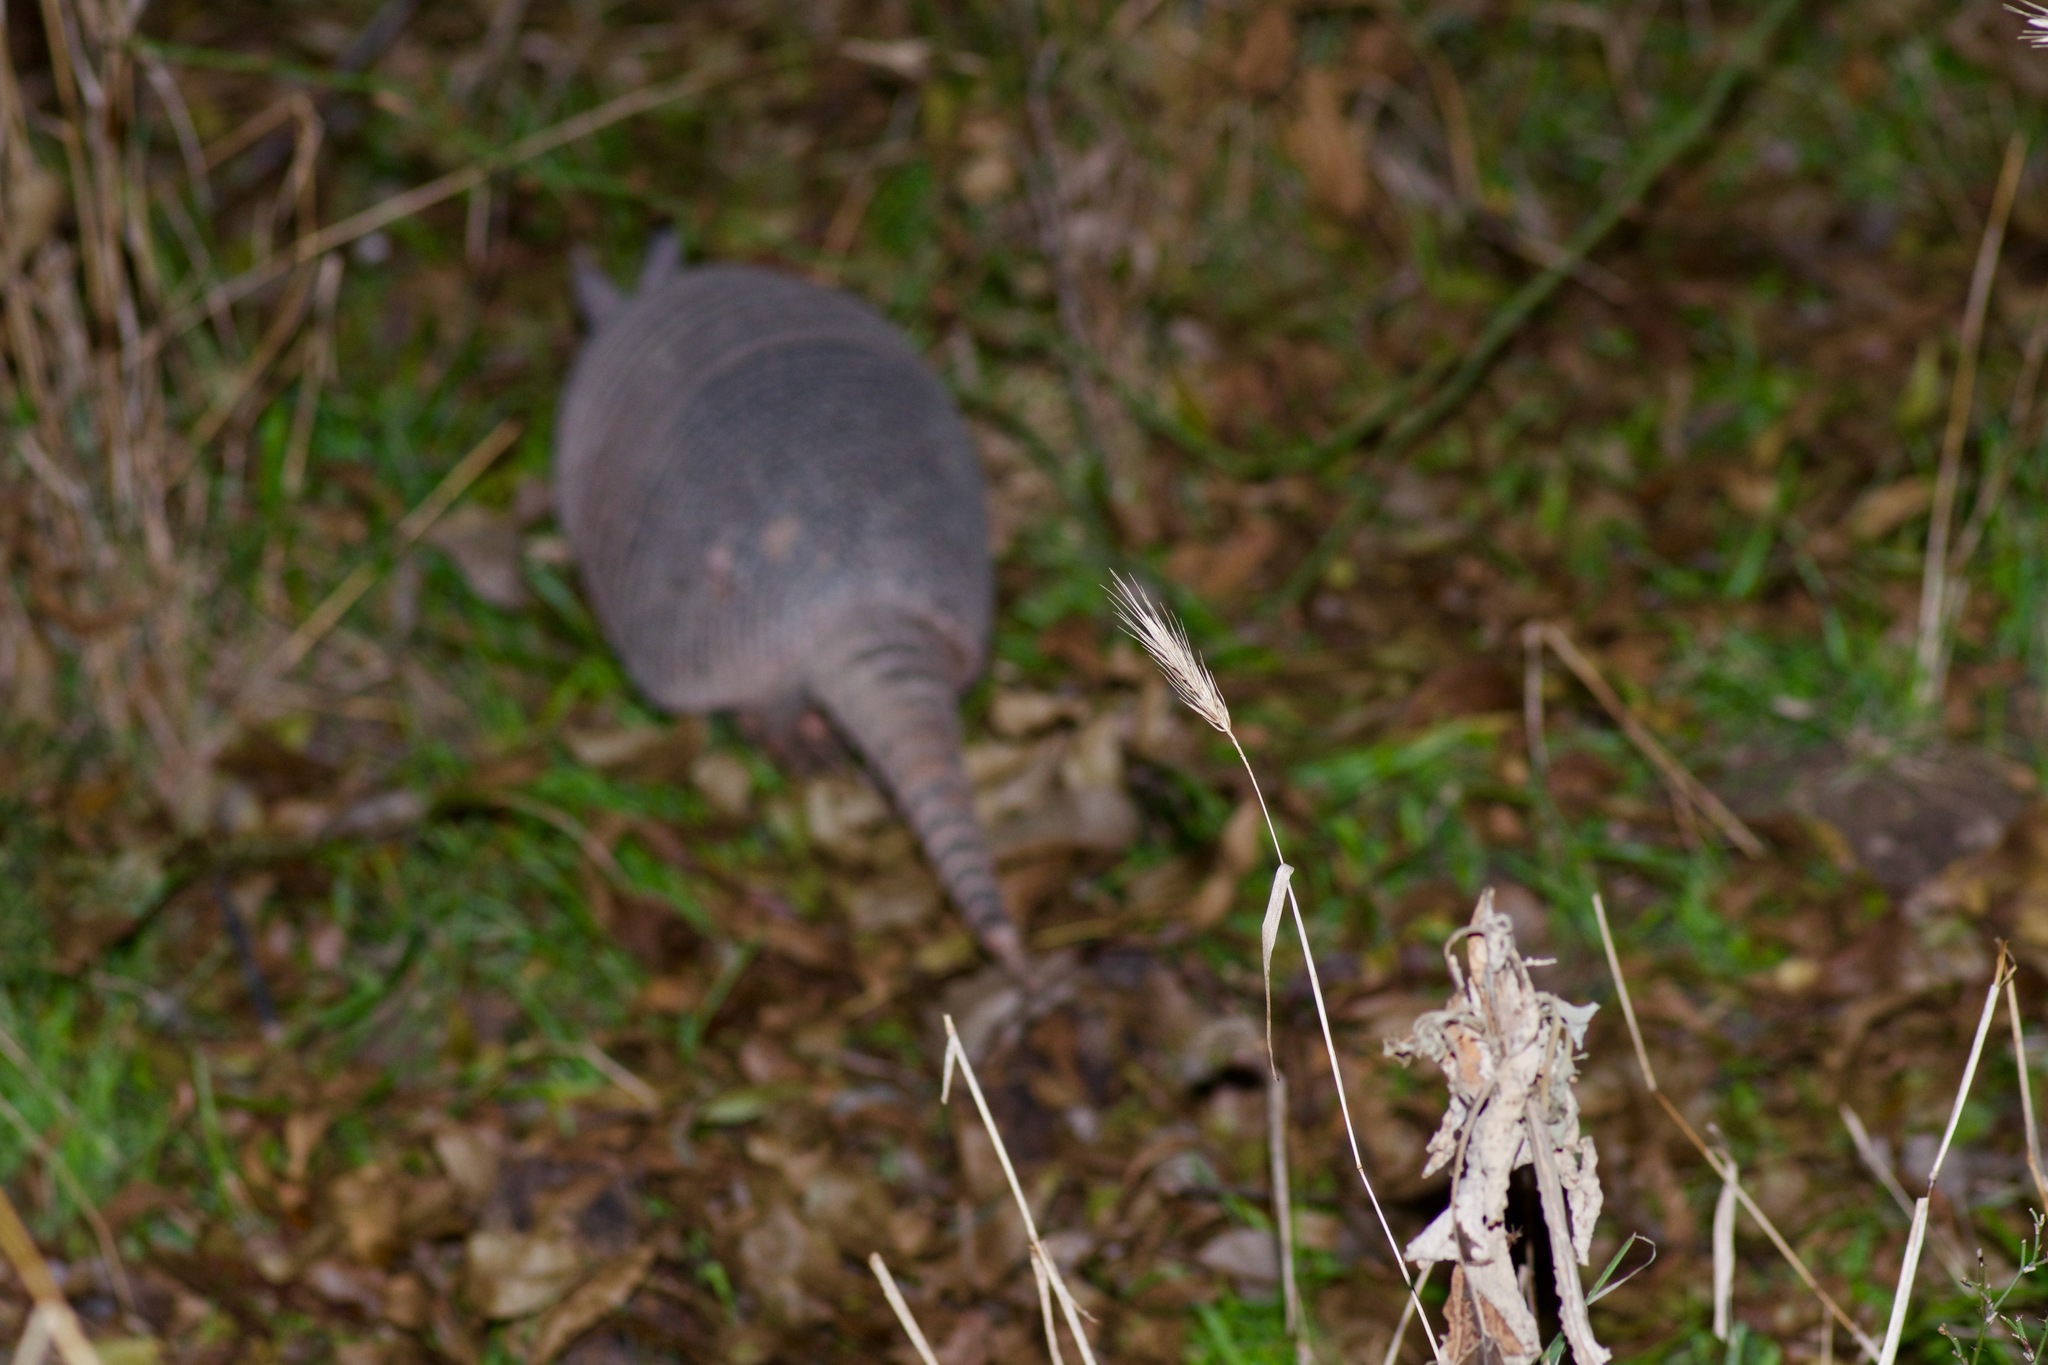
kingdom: Animalia
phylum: Chordata
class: Mammalia
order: Cingulata
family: Dasypodidae
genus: Dasypus
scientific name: Dasypus novemcinctus
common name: Nine-banded armadillo
